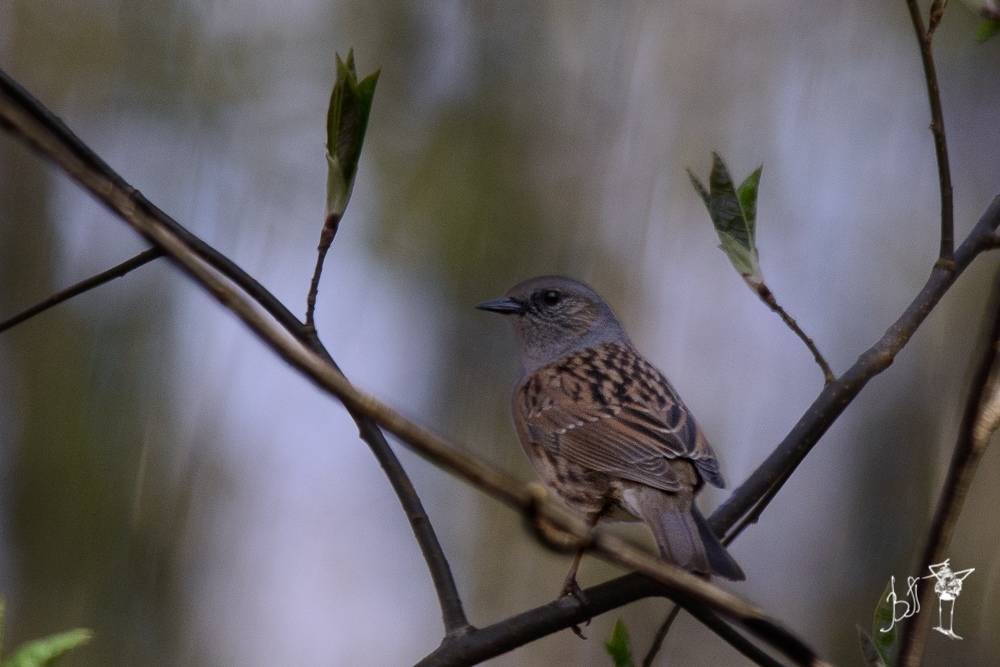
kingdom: Animalia
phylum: Chordata
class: Aves
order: Passeriformes
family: Prunellidae
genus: Prunella
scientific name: Prunella modularis
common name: Dunnock
